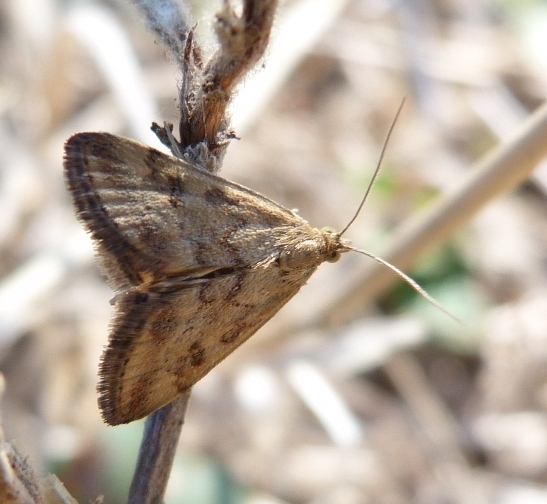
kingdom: Animalia
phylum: Arthropoda
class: Insecta
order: Lepidoptera
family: Crambidae
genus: Pyrausta
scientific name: Pyrausta despicata
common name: Straw-barred pearl
